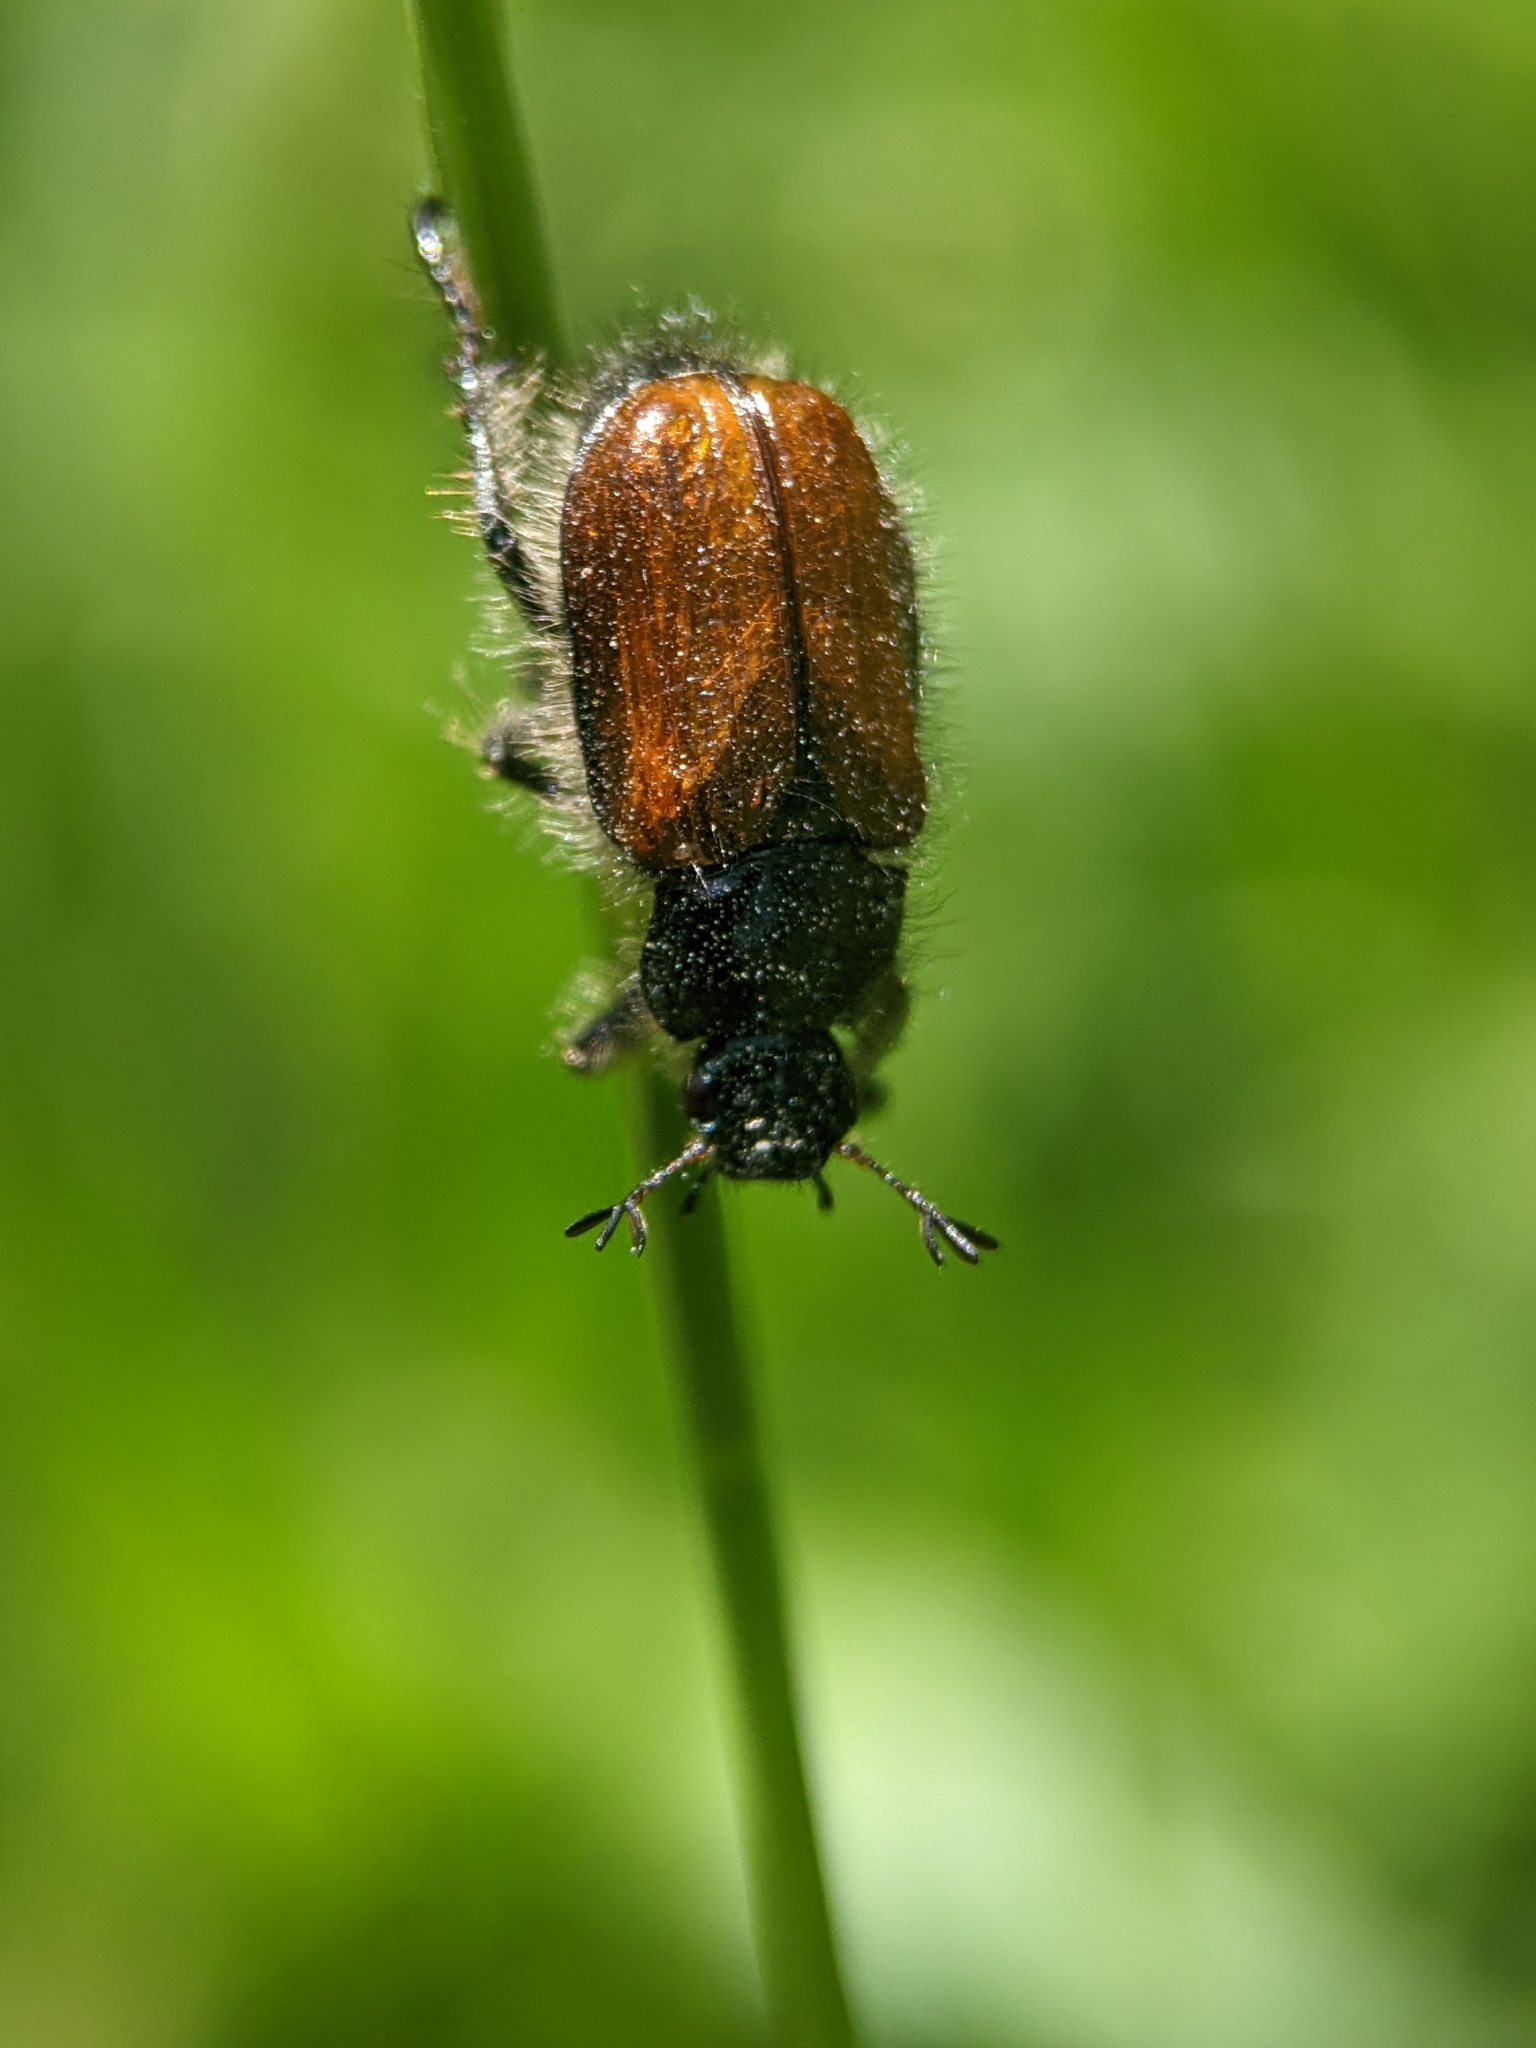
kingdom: Animalia
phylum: Arthropoda
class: Insecta
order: Coleoptera
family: Scarabaeidae
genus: Phyllopertha
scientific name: Phyllopertha horticola
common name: Garden chafer
